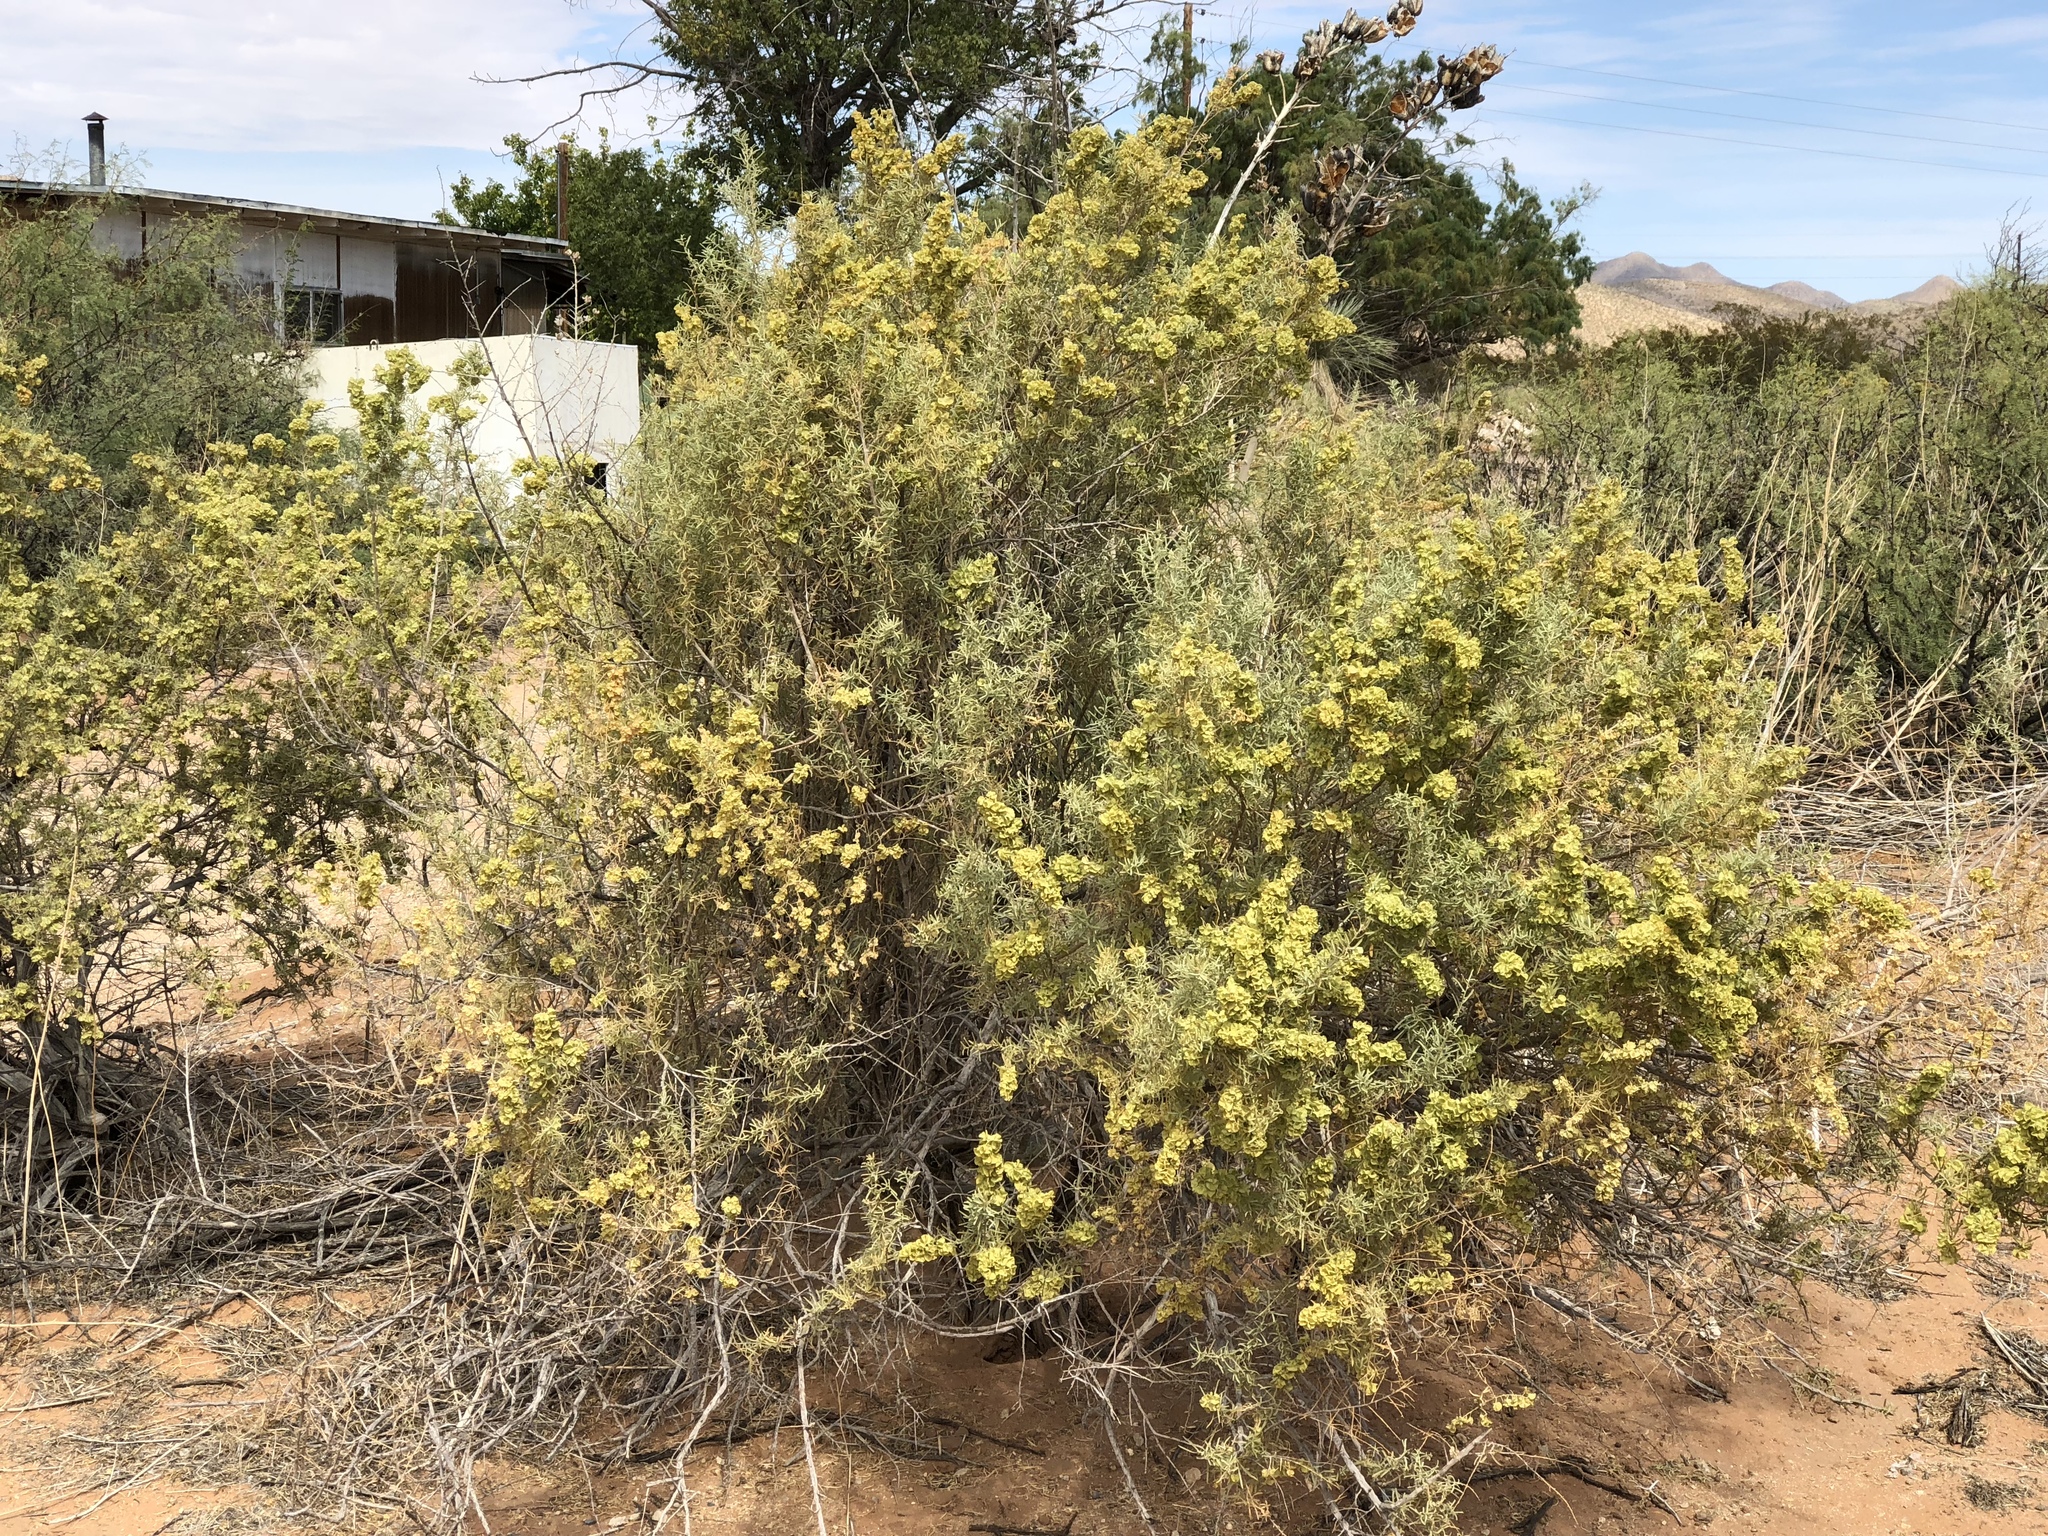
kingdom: Plantae
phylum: Tracheophyta
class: Magnoliopsida
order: Caryophyllales
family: Amaranthaceae
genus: Atriplex
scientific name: Atriplex canescens
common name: Four-wing saltbush
